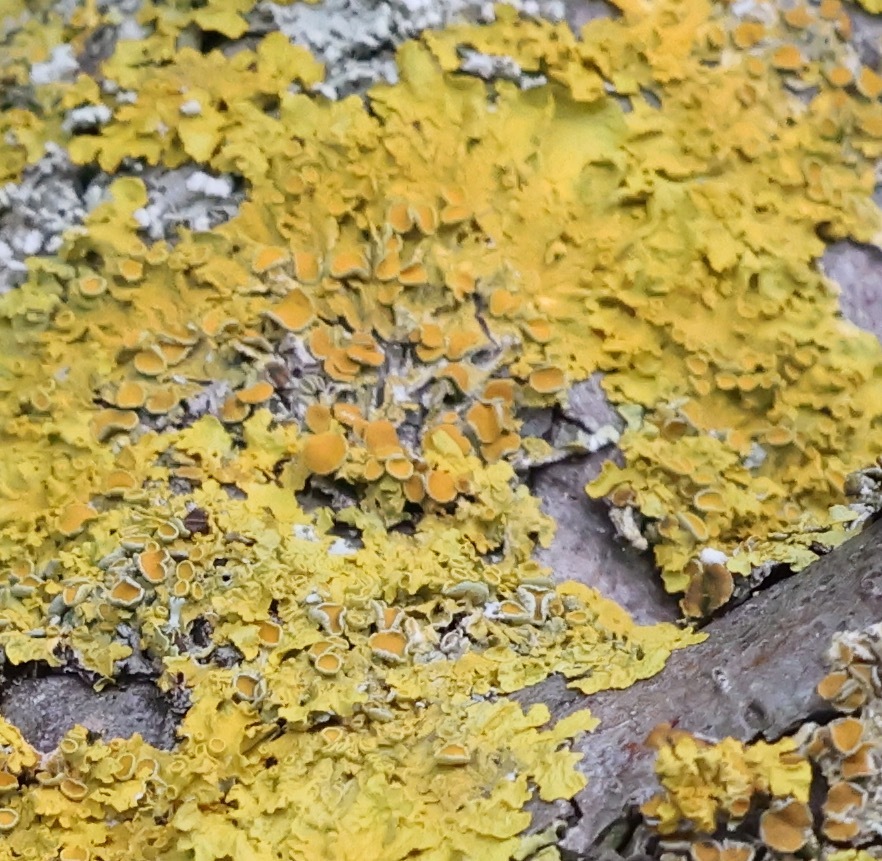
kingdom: Fungi
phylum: Ascomycota
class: Lecanoromycetes
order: Teloschistales
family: Teloschistaceae
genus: Xanthoria
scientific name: Xanthoria parietina
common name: Common orange lichen
